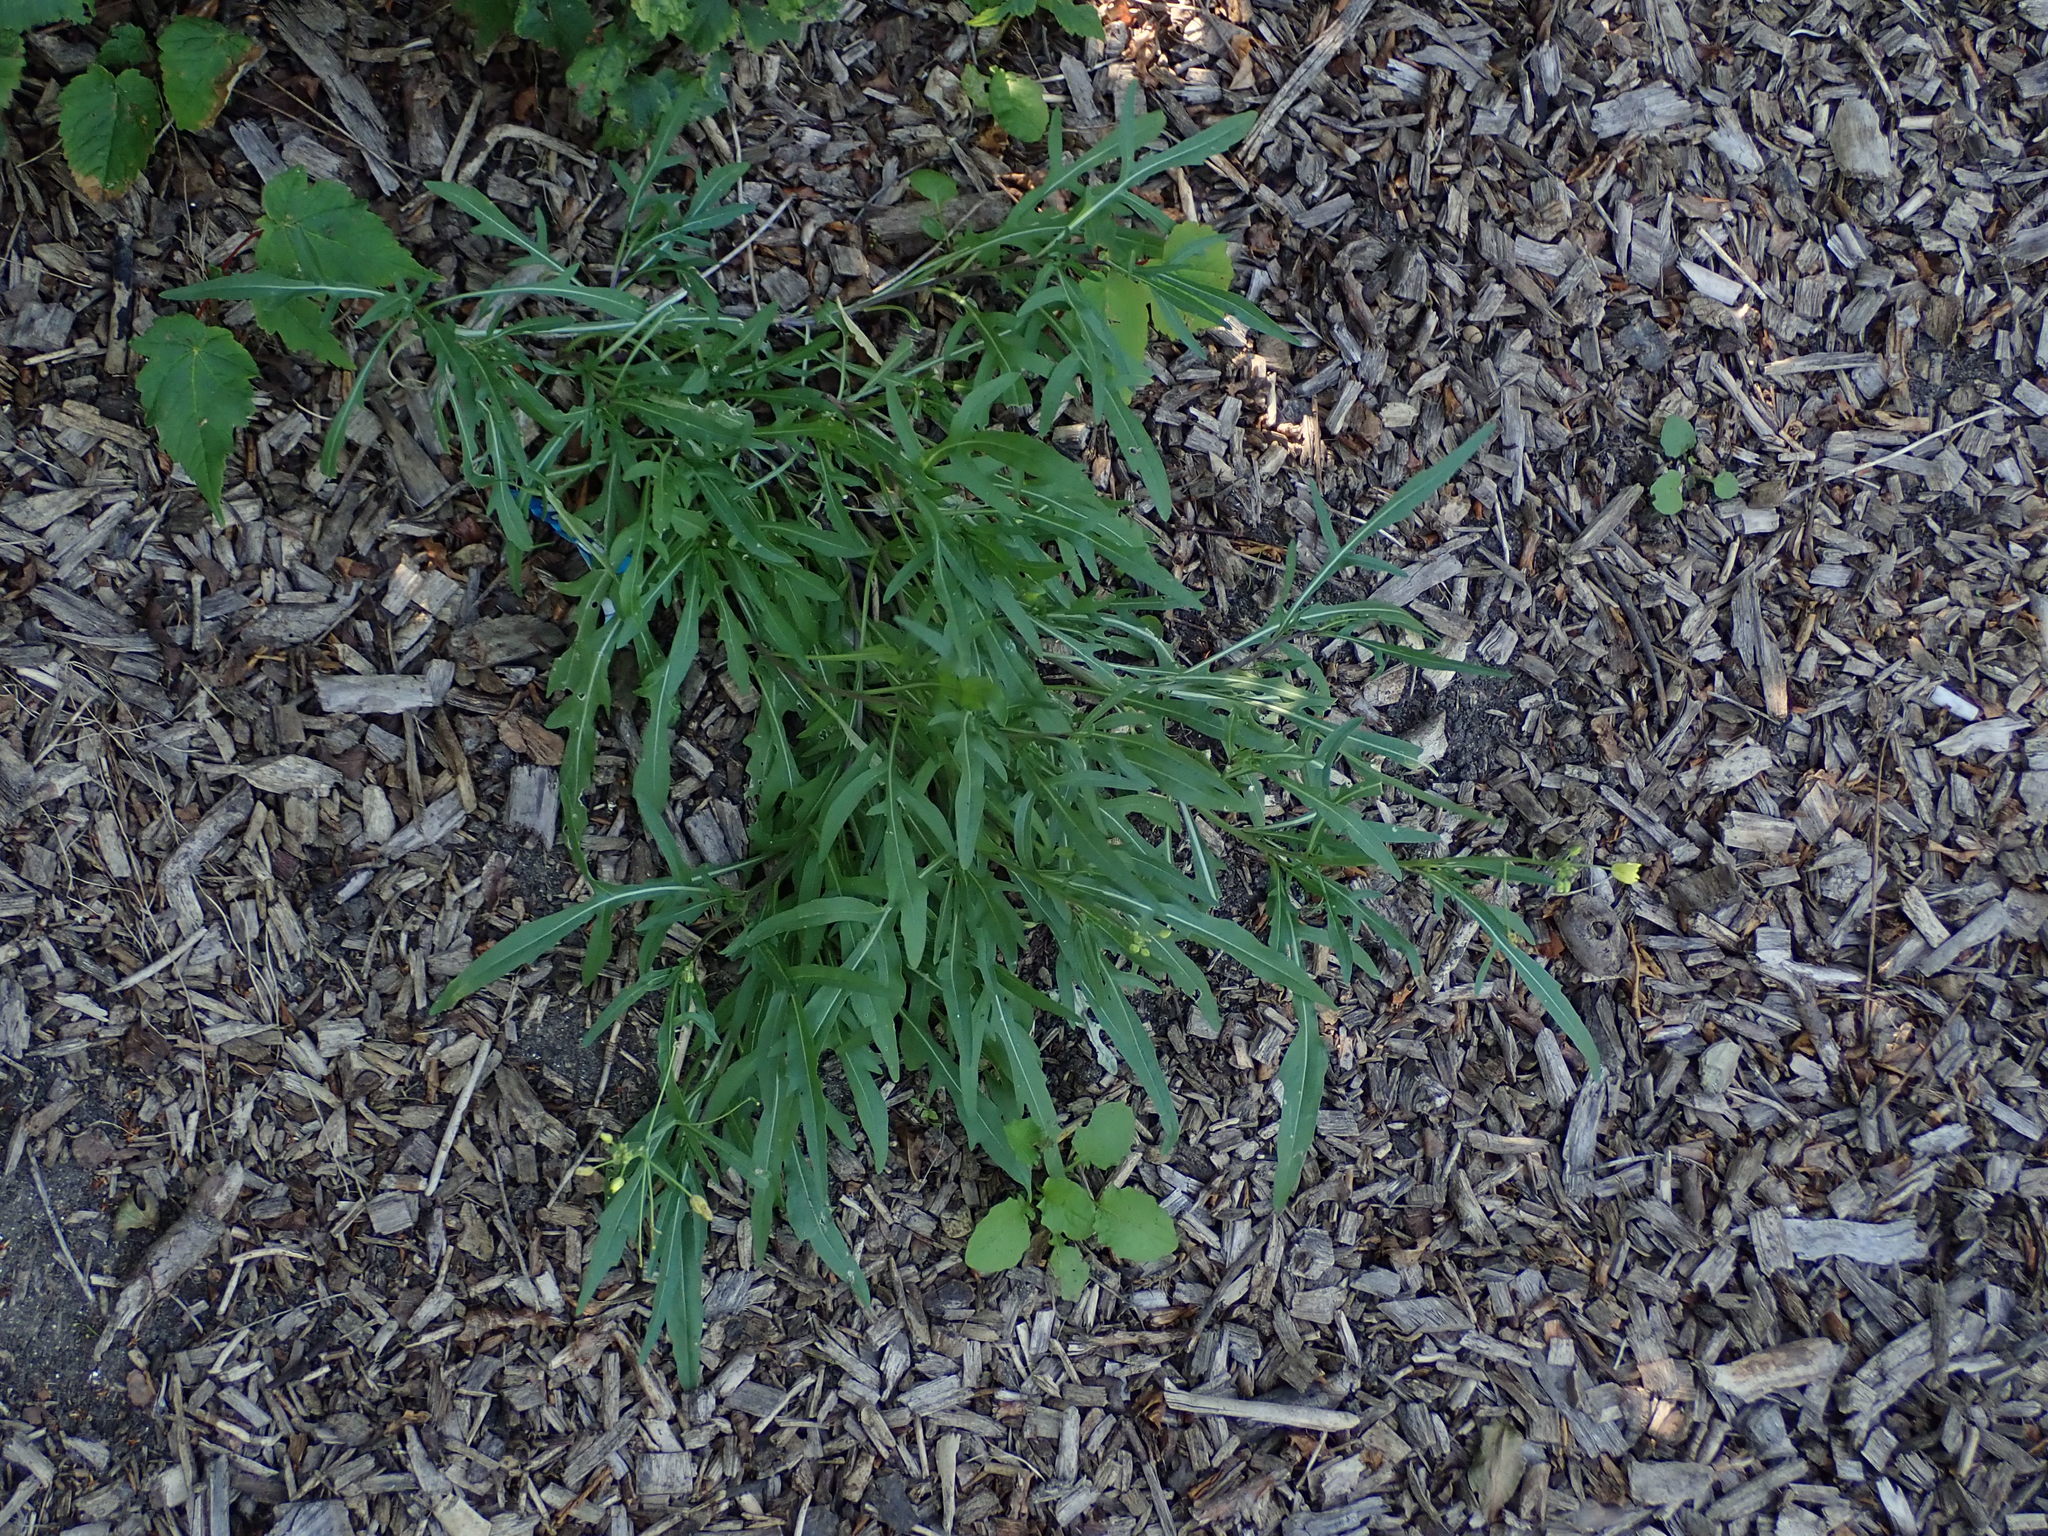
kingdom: Plantae
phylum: Tracheophyta
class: Magnoliopsida
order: Brassicales
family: Brassicaceae
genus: Diplotaxis
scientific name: Diplotaxis tenuifolia
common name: Perennial wall-rocket
